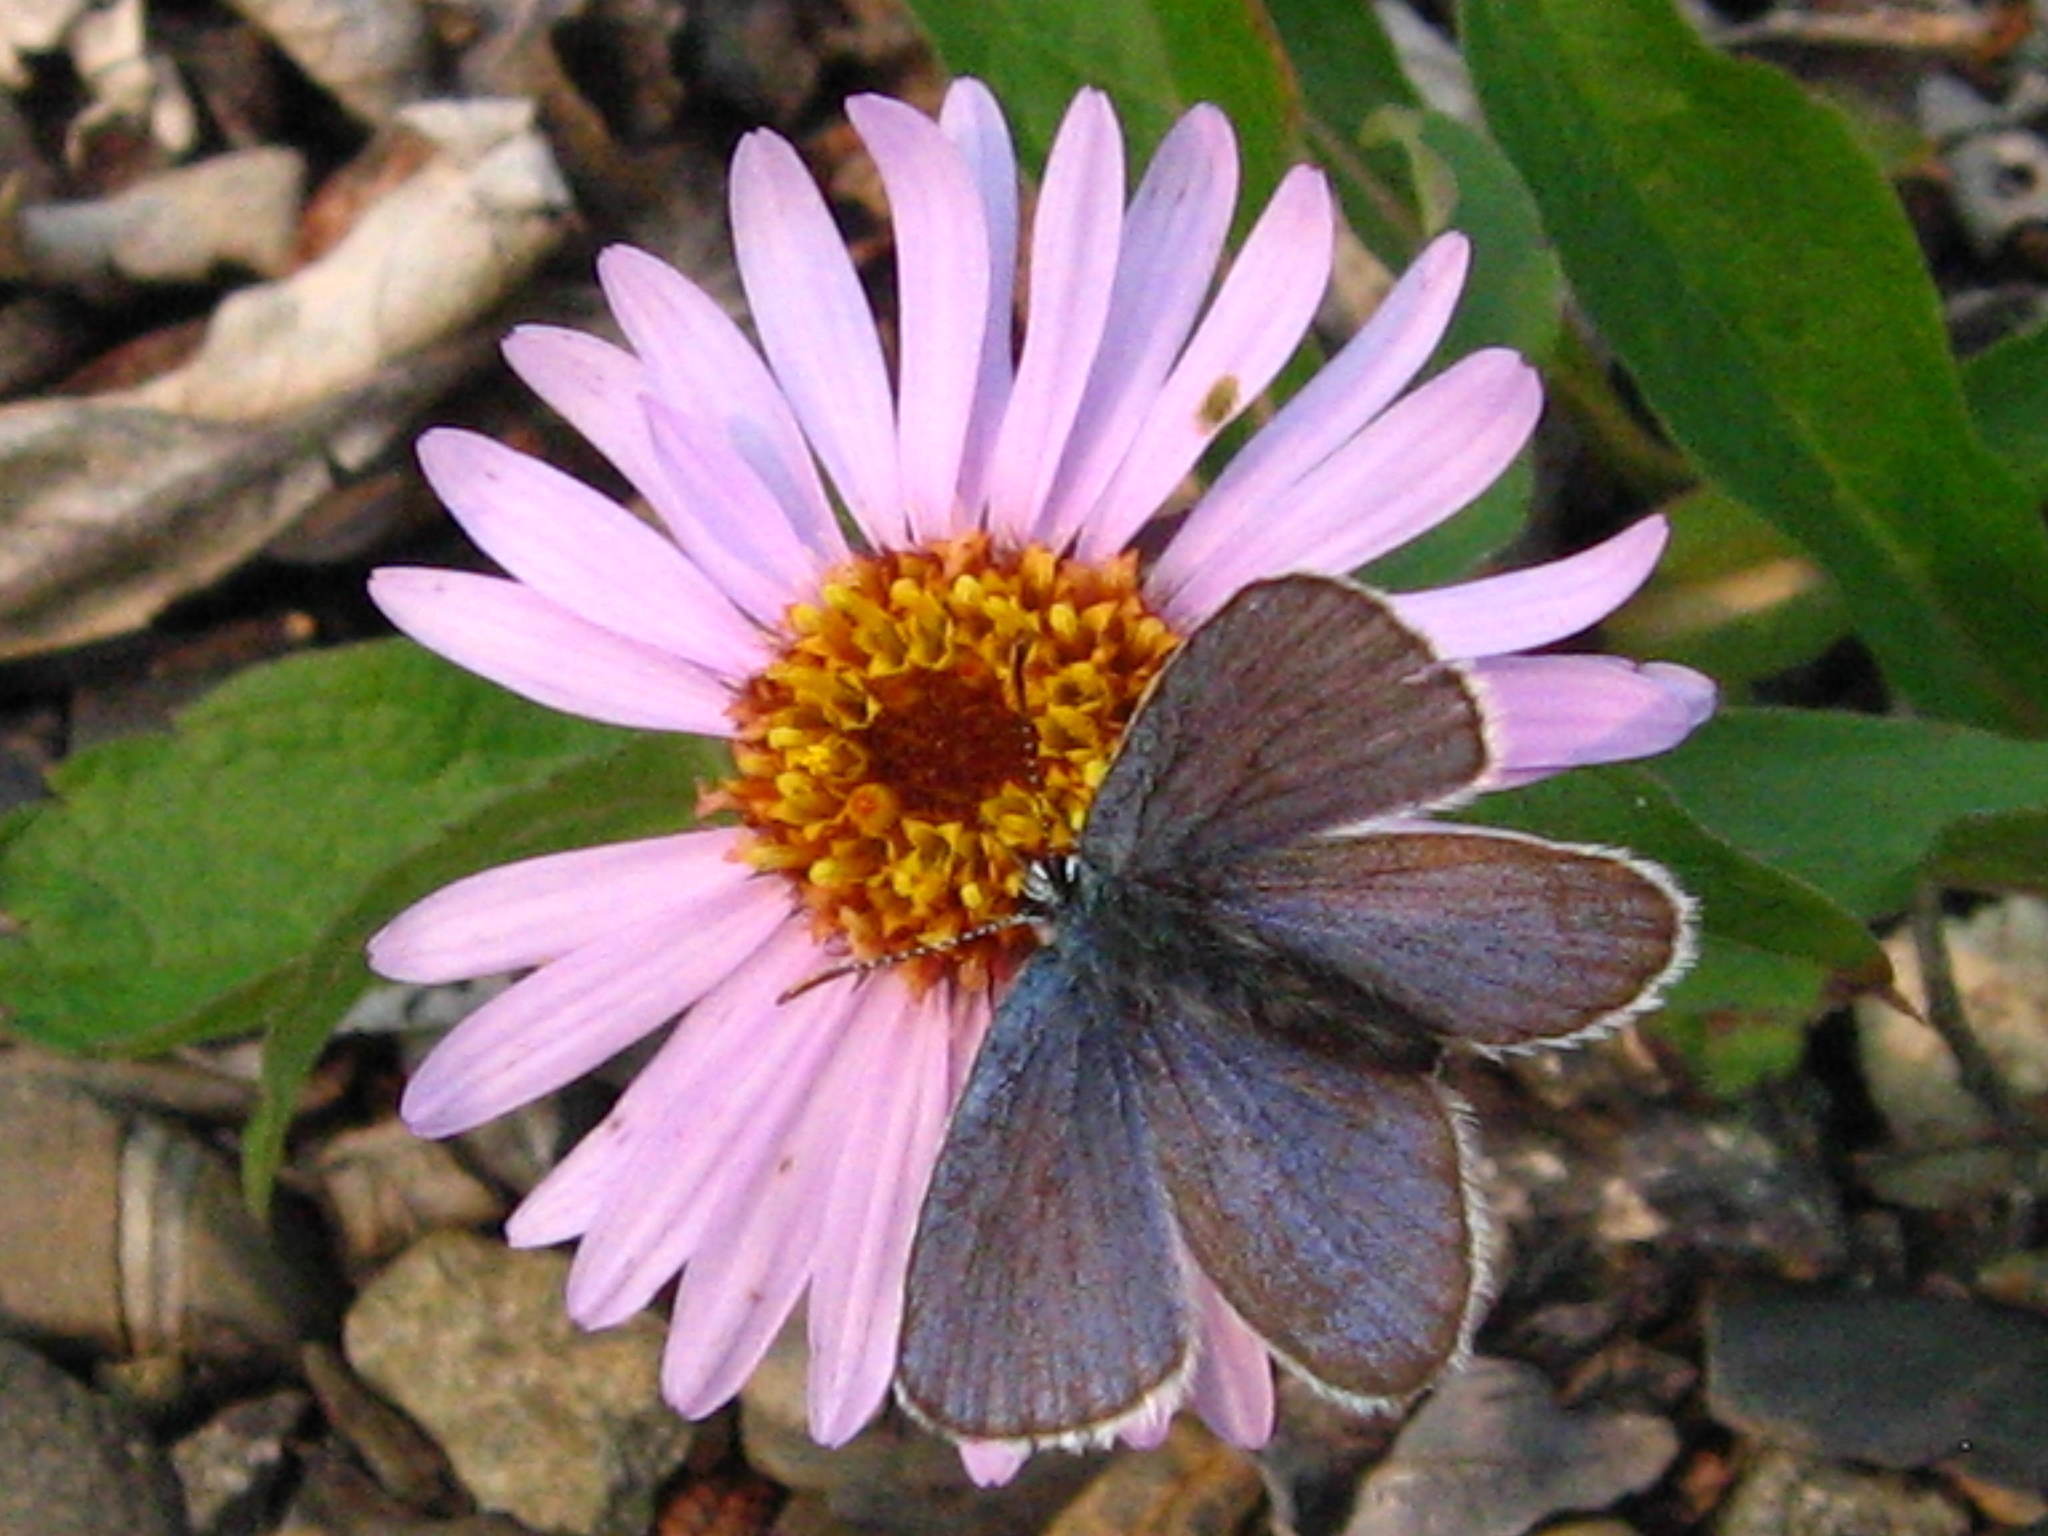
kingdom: Animalia
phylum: Arthropoda
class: Insecta
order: Lepidoptera
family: Lycaenidae
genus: Vacciniina
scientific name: Vacciniina optilete
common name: Cranberry blue
